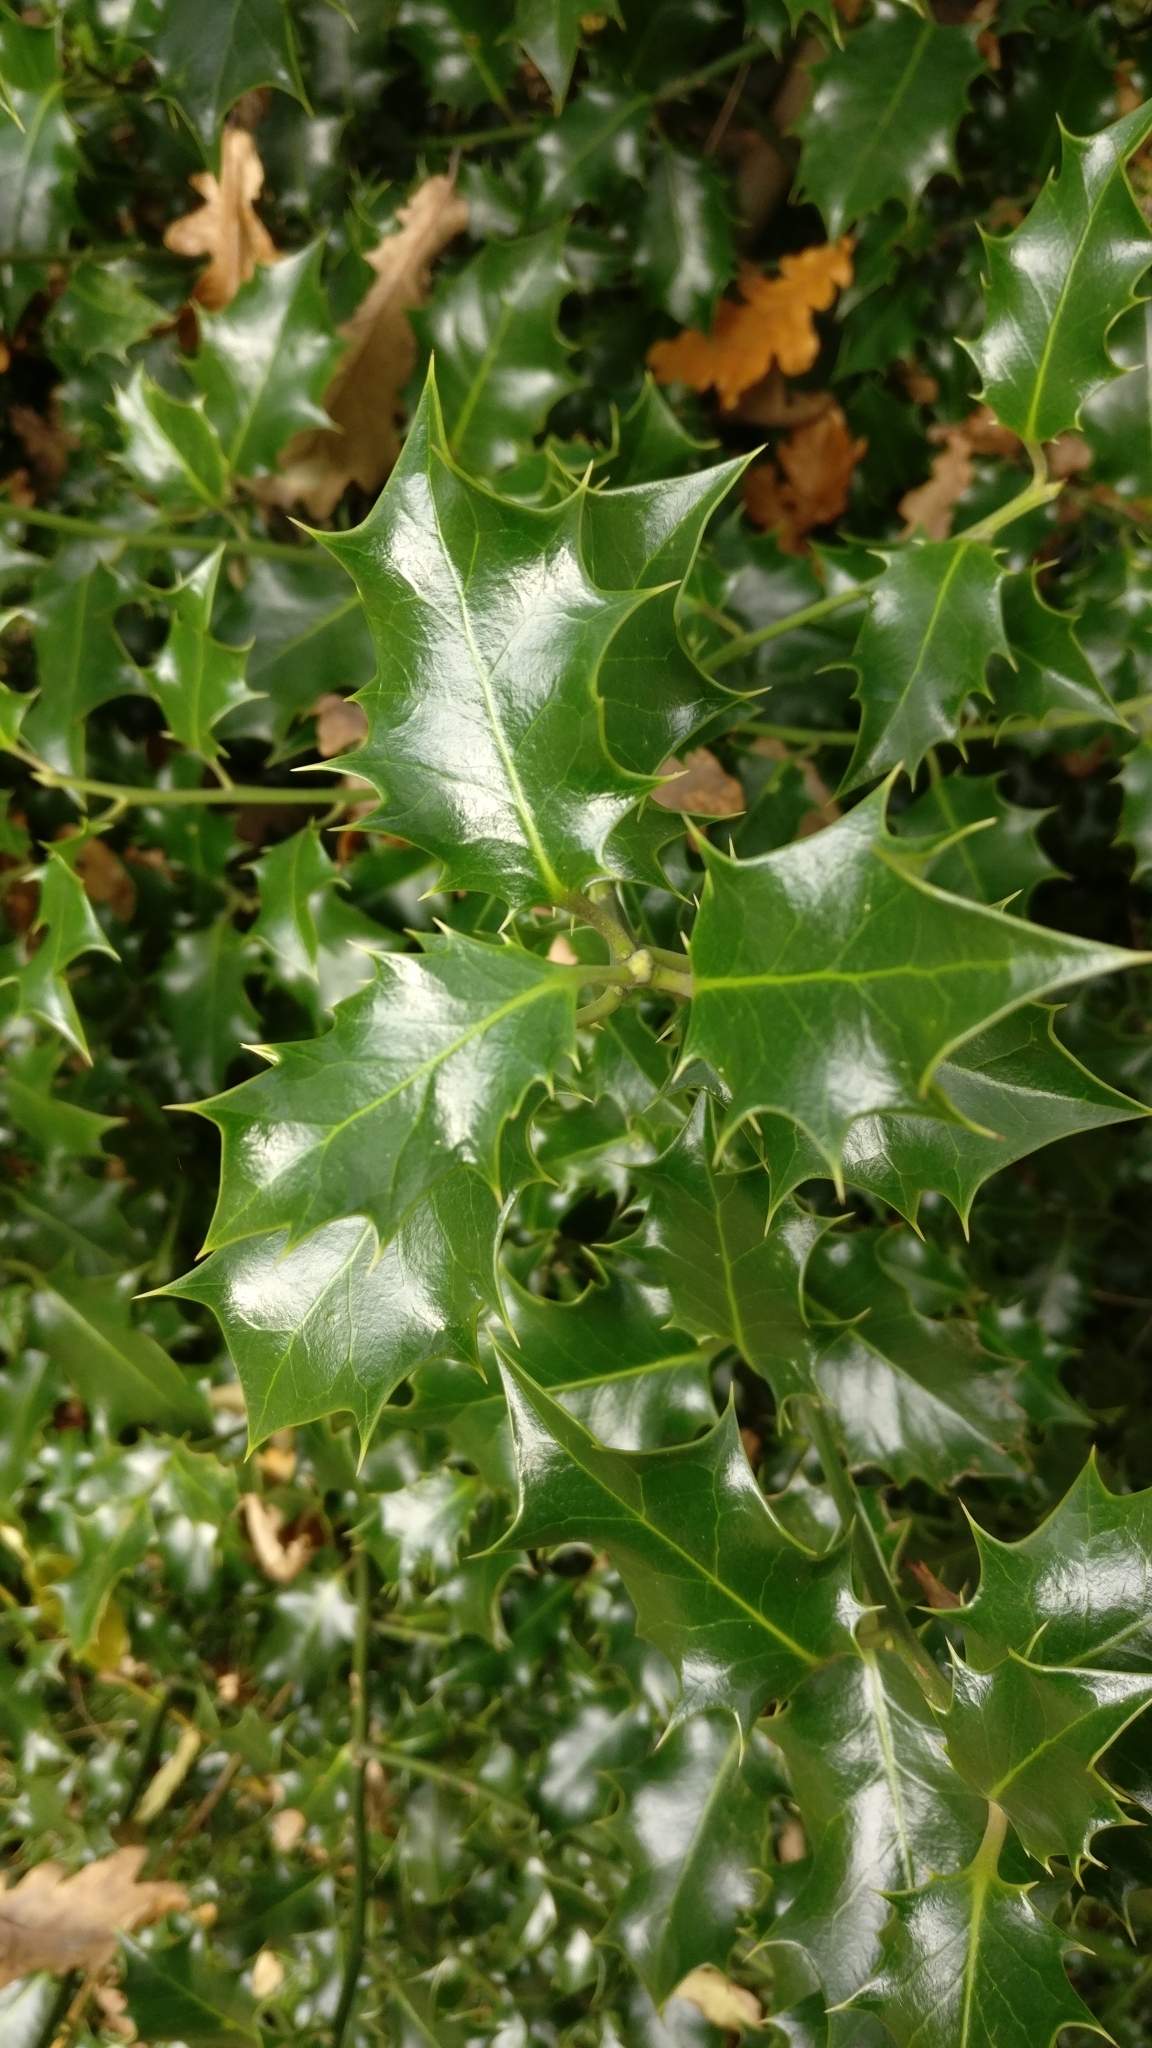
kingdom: Plantae
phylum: Tracheophyta
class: Magnoliopsida
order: Aquifoliales
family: Aquifoliaceae
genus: Ilex
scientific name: Ilex aquifolium
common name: English holly
